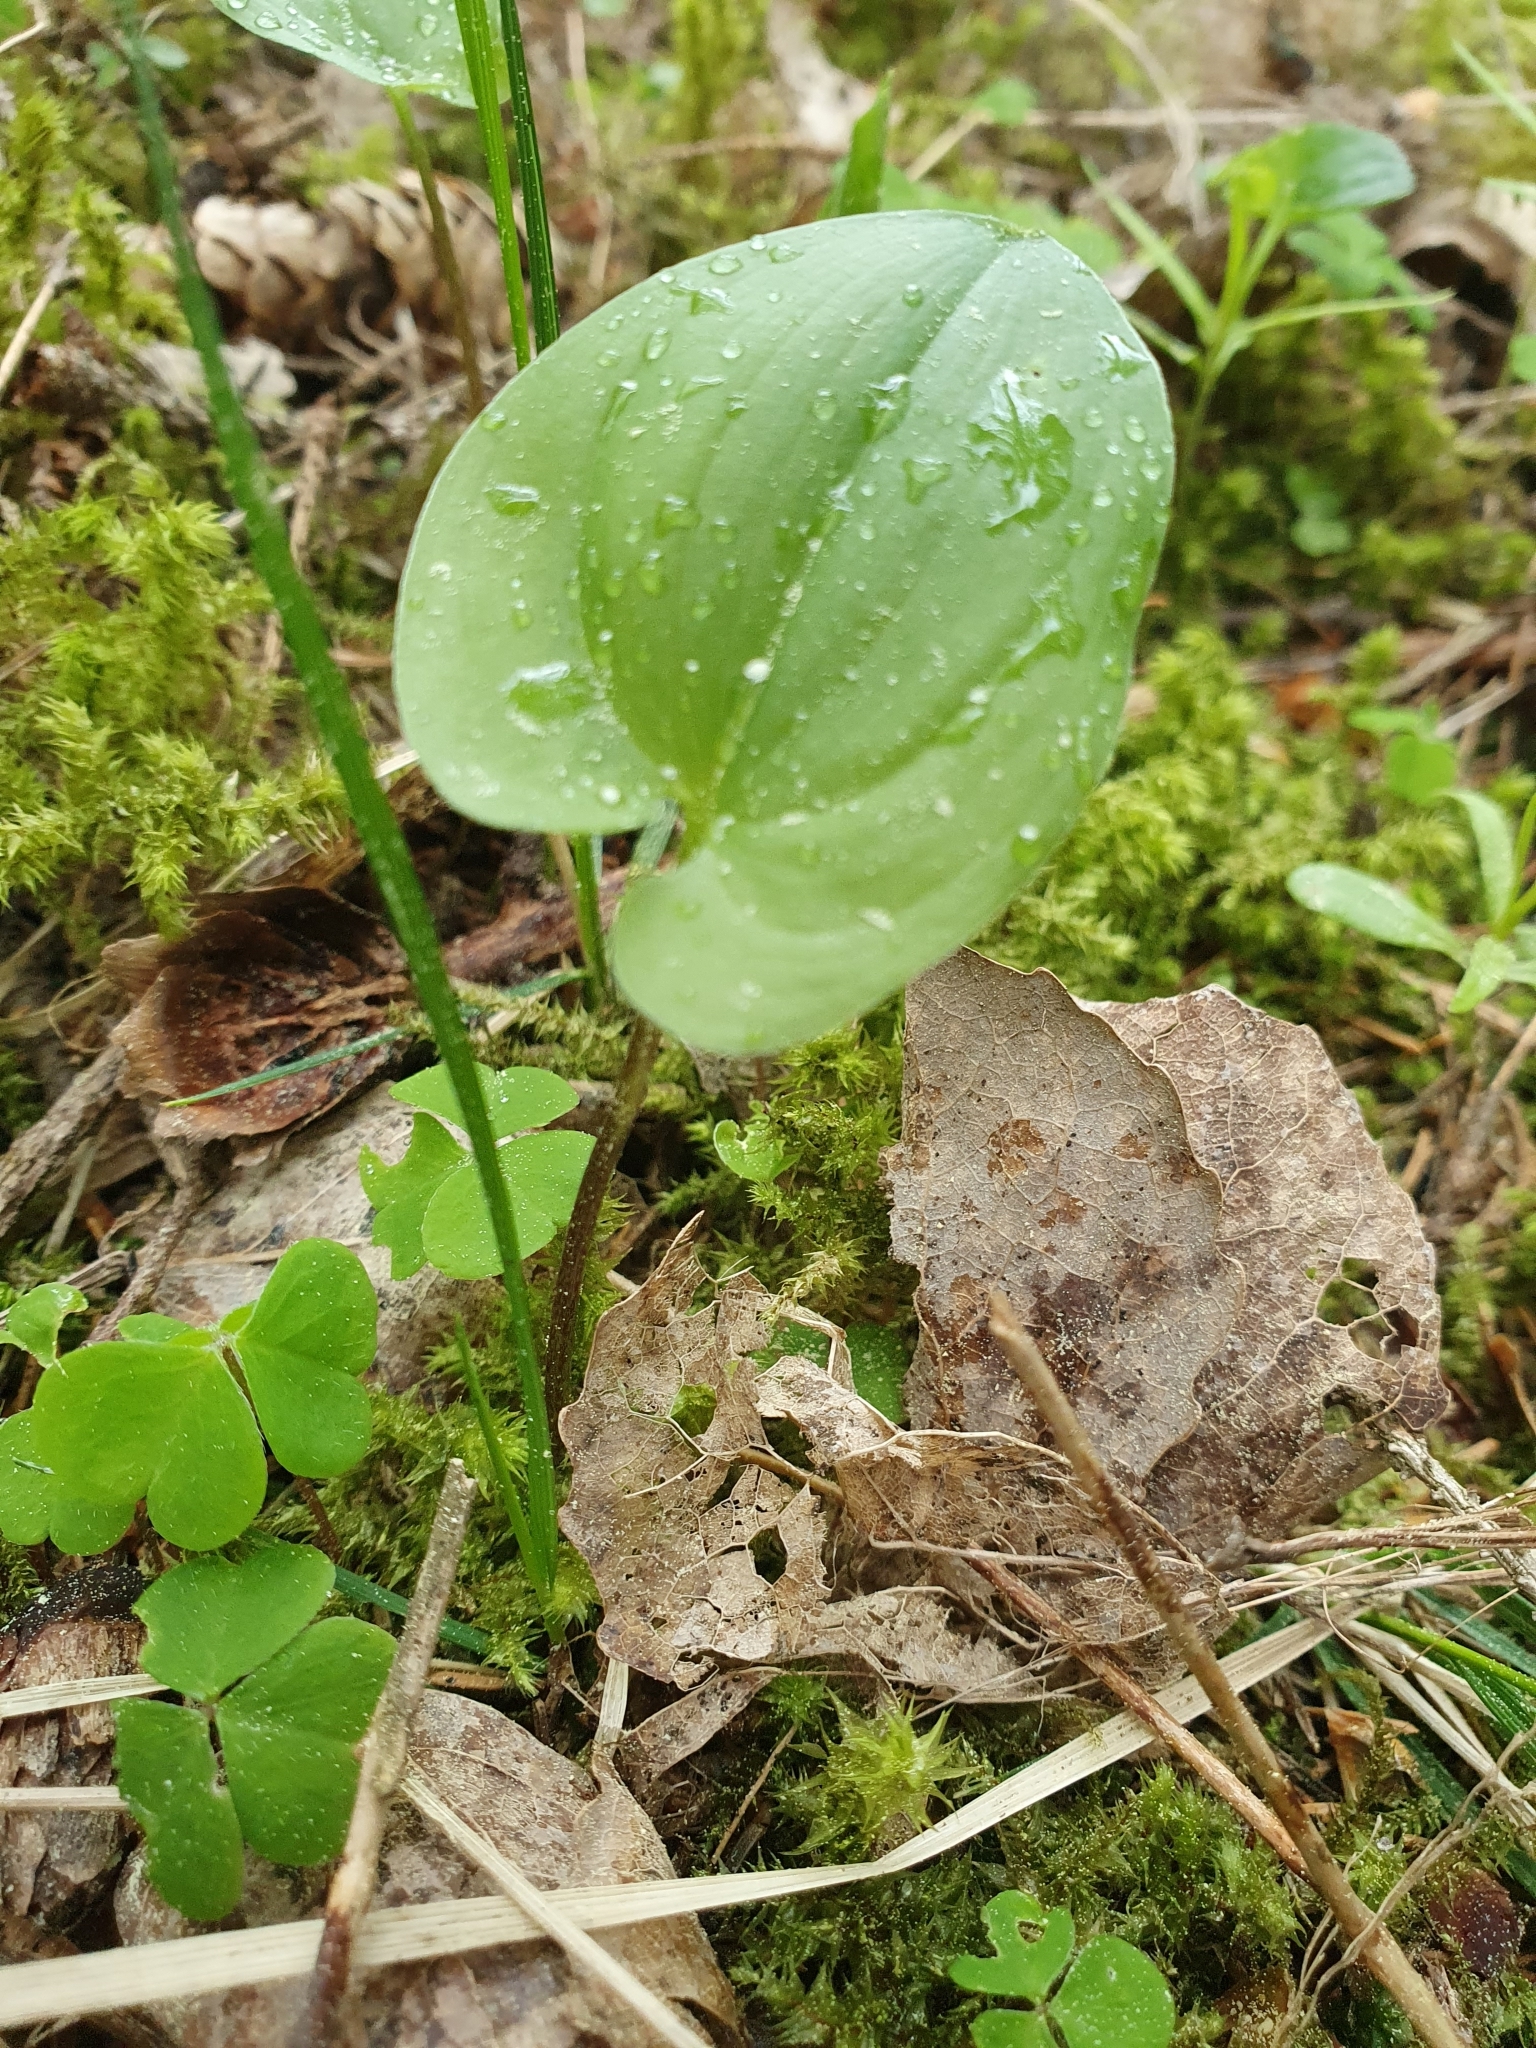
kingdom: Plantae
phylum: Tracheophyta
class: Liliopsida
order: Asparagales
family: Asparagaceae
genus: Maianthemum
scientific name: Maianthemum bifolium
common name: May lily
